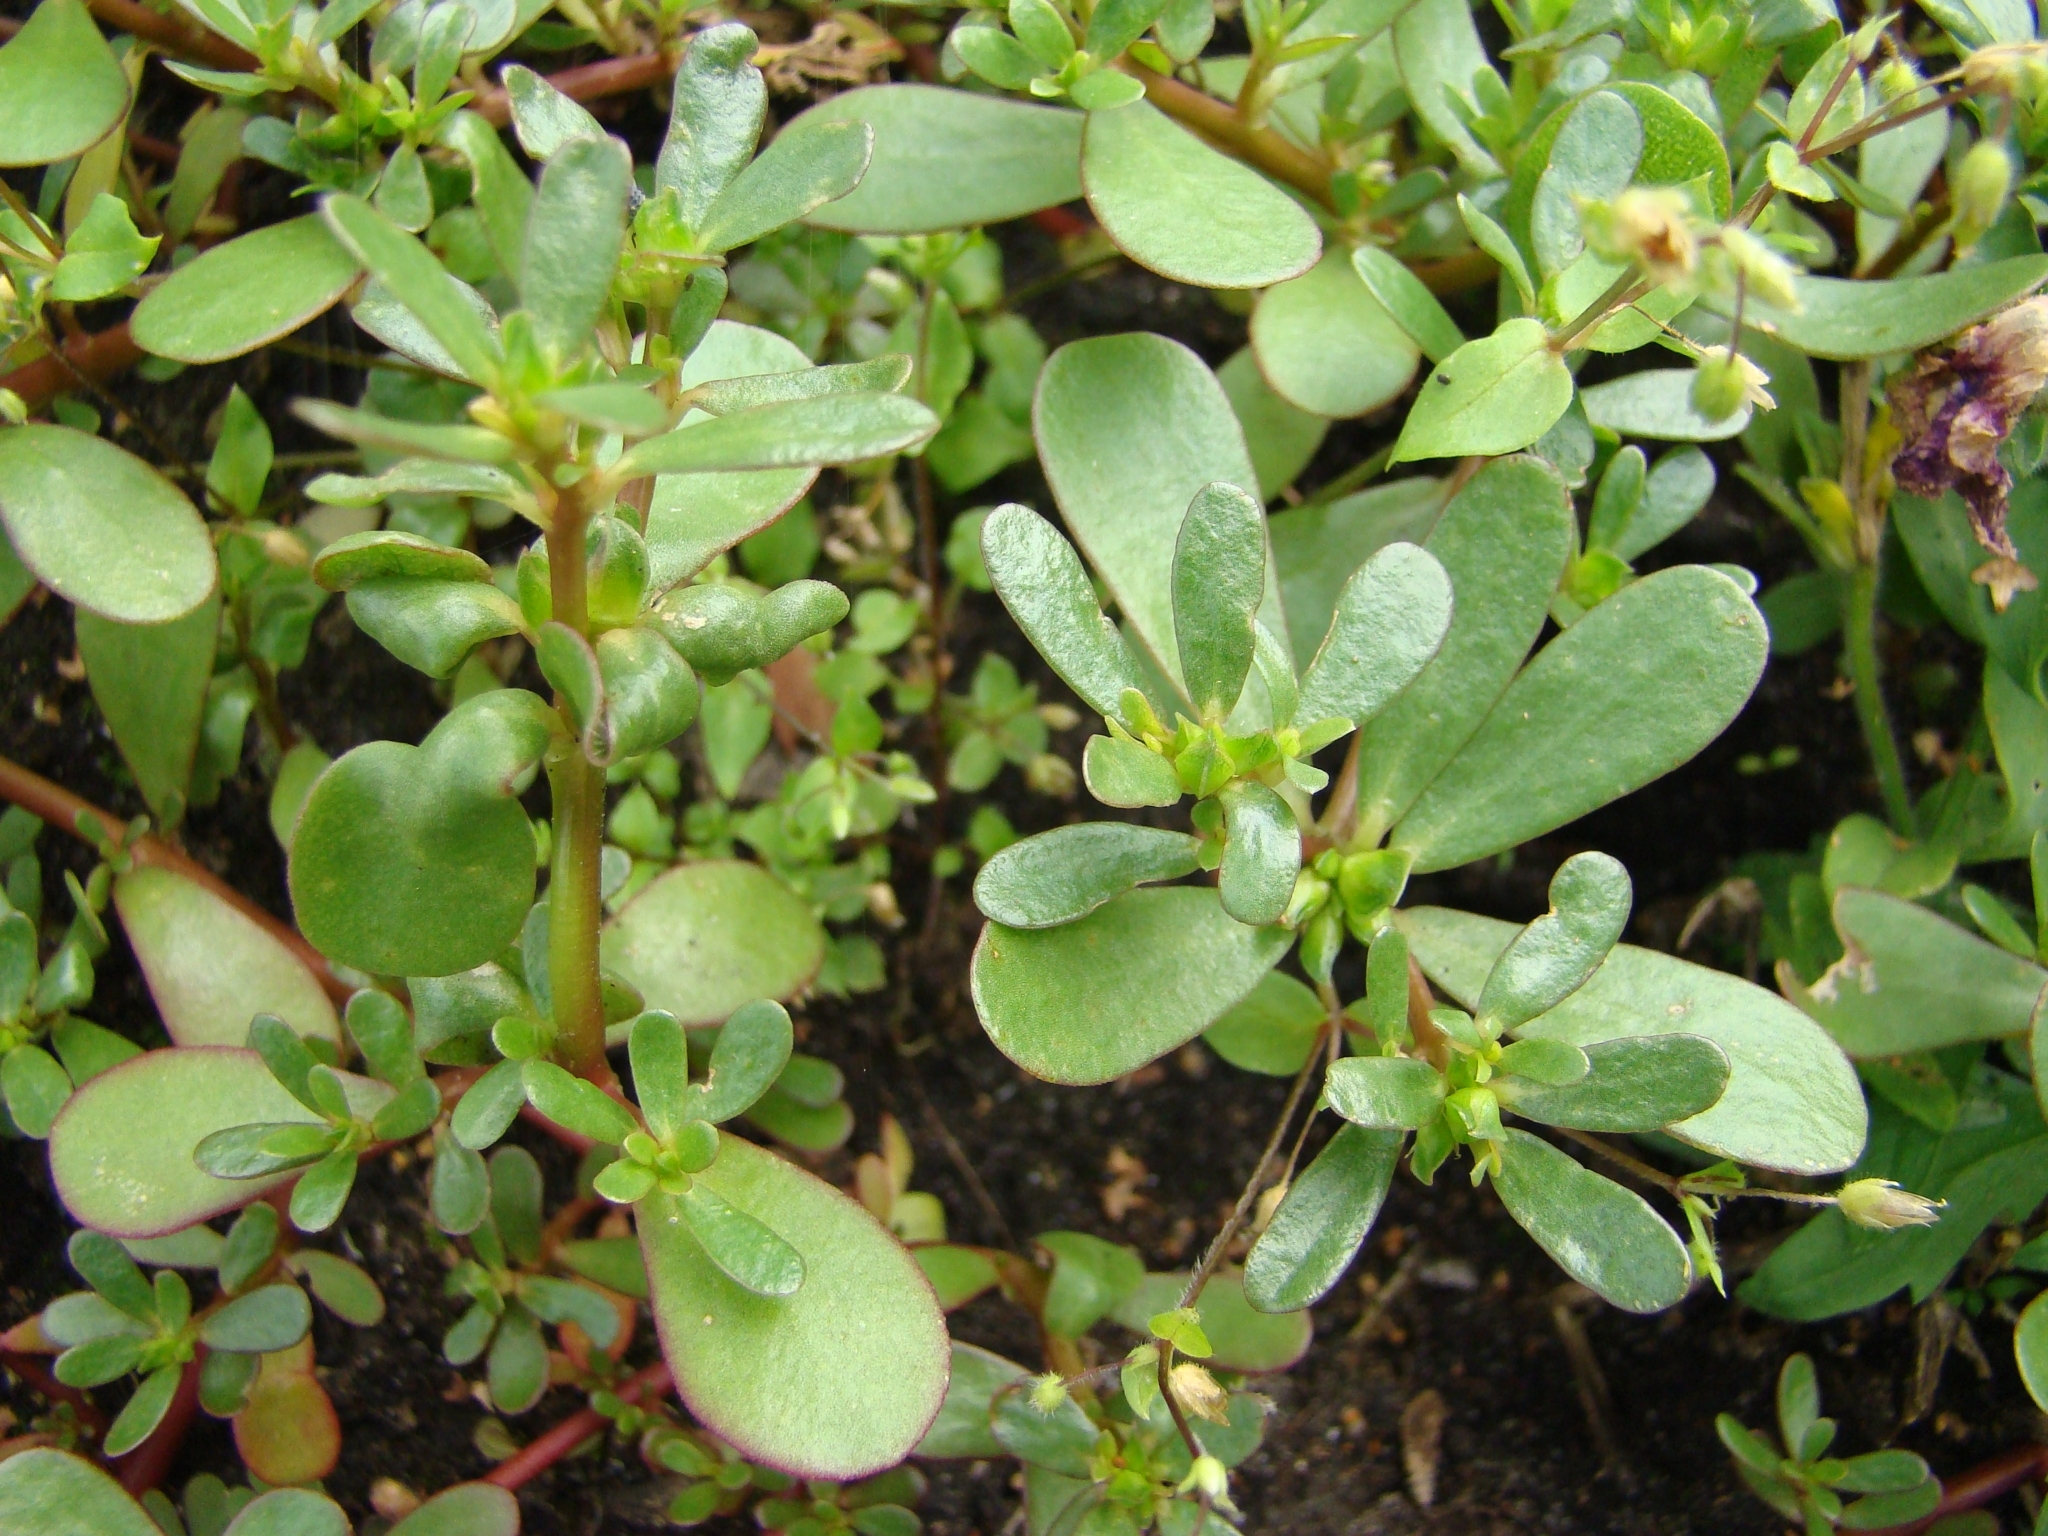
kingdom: Plantae
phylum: Tracheophyta
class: Magnoliopsida
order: Caryophyllales
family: Portulacaceae
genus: Portulaca
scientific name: Portulaca oleracea
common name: Common purslane
